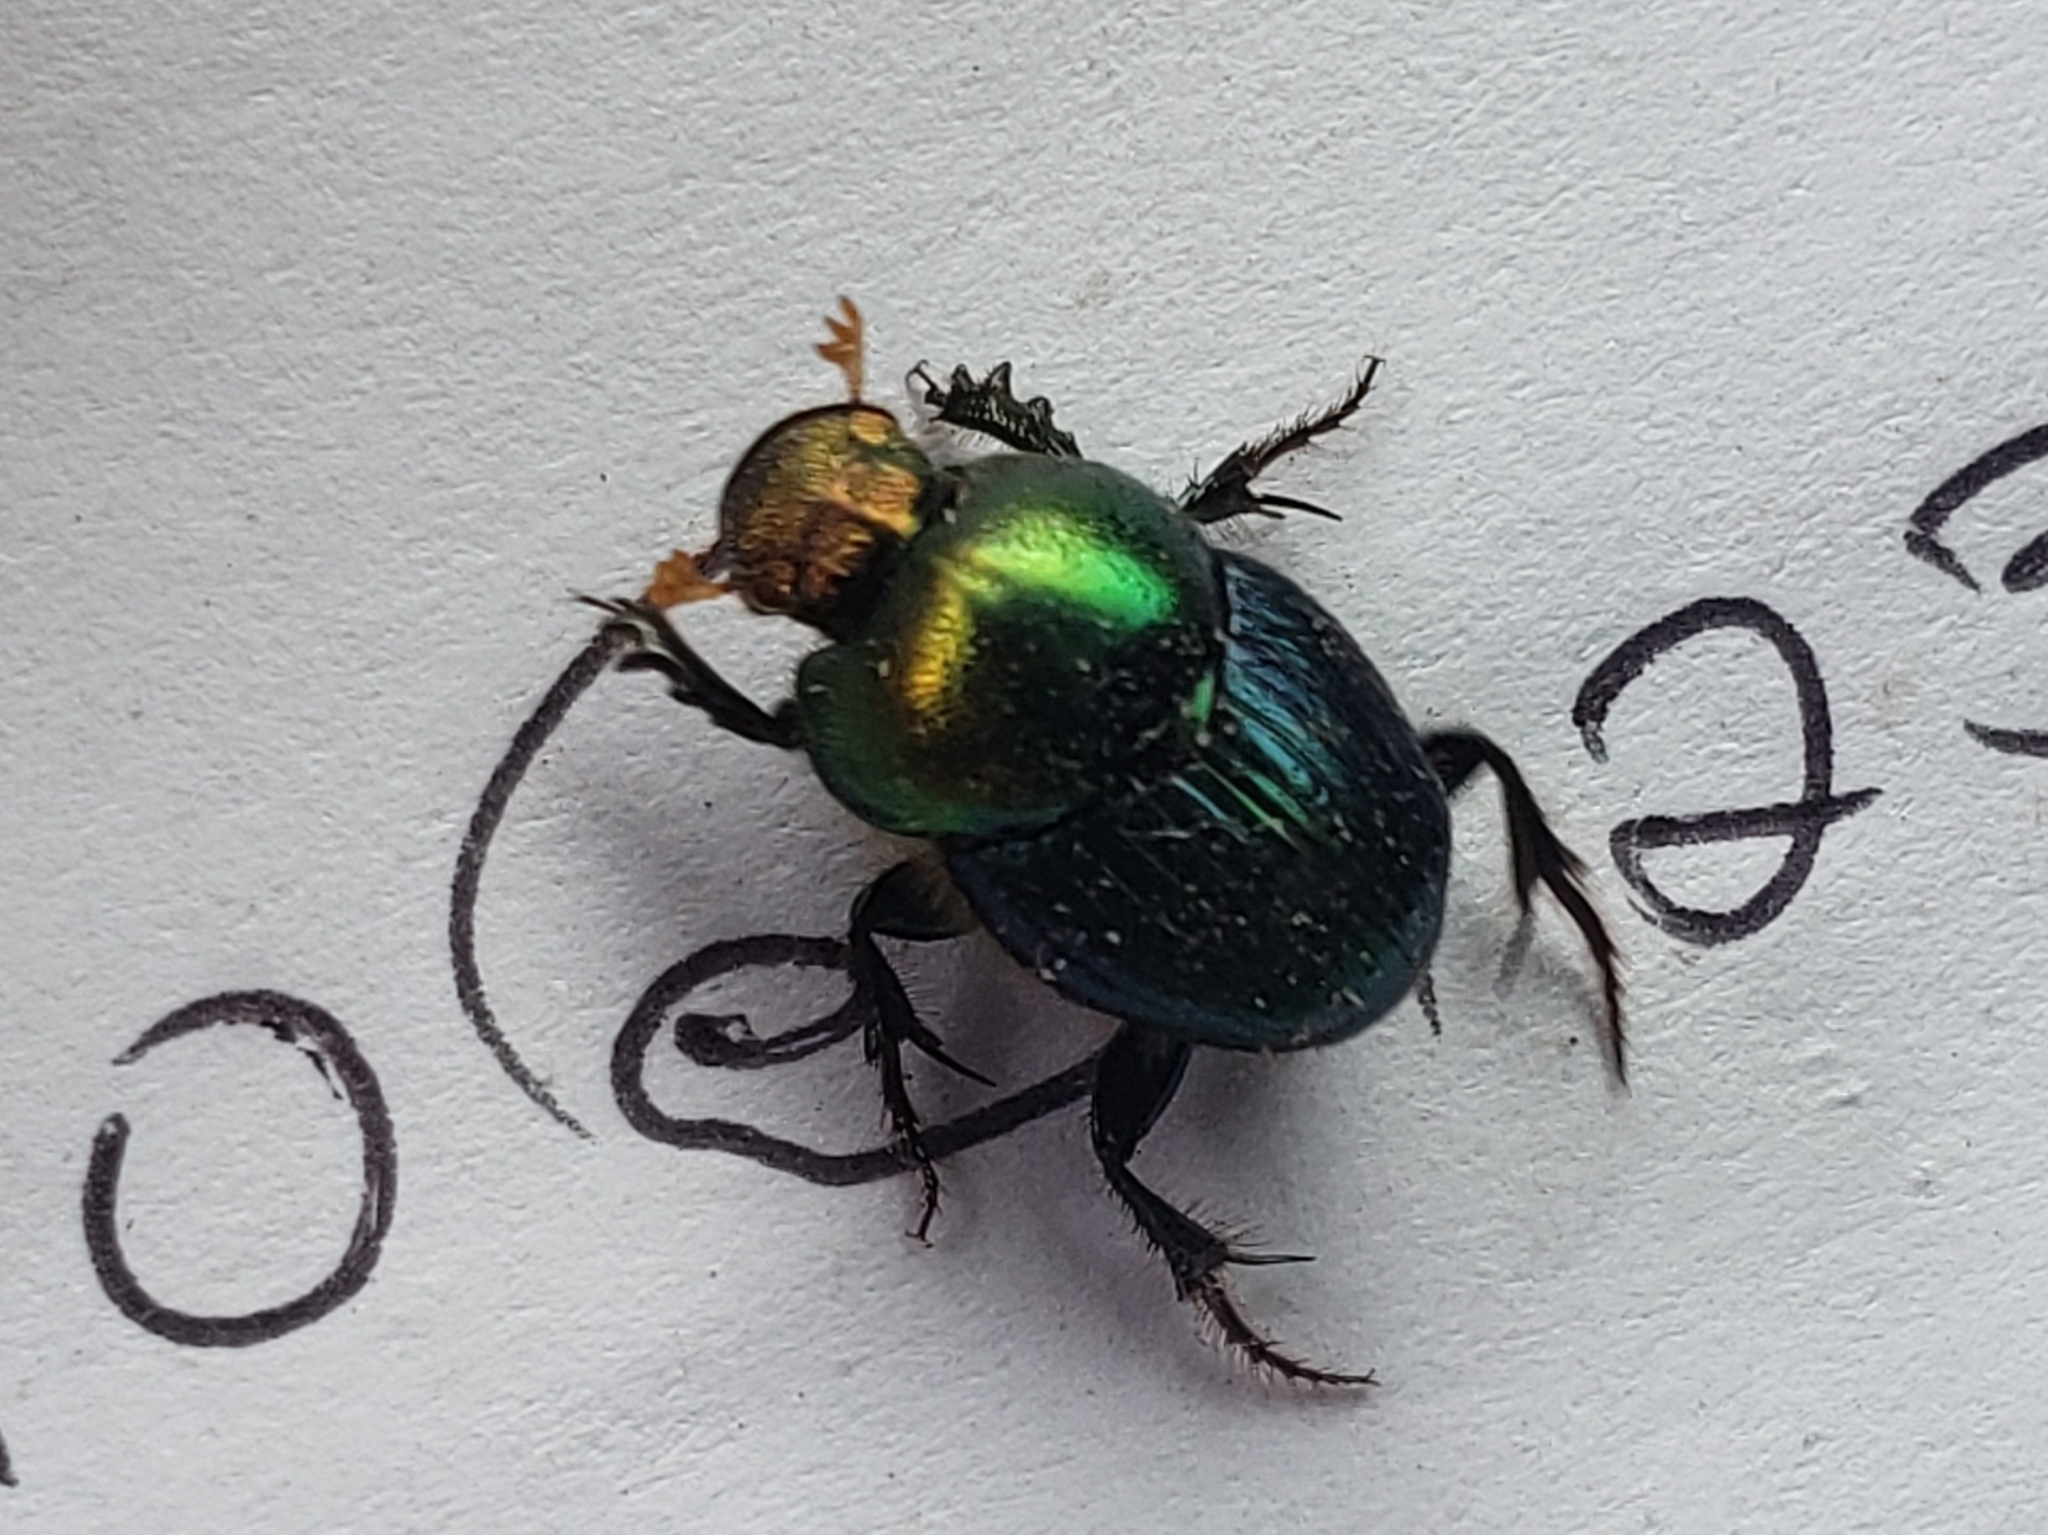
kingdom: Animalia
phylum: Arthropoda
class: Insecta
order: Coleoptera
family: Scarabaeidae
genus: Proagoderus
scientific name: Proagoderus aureiceps
